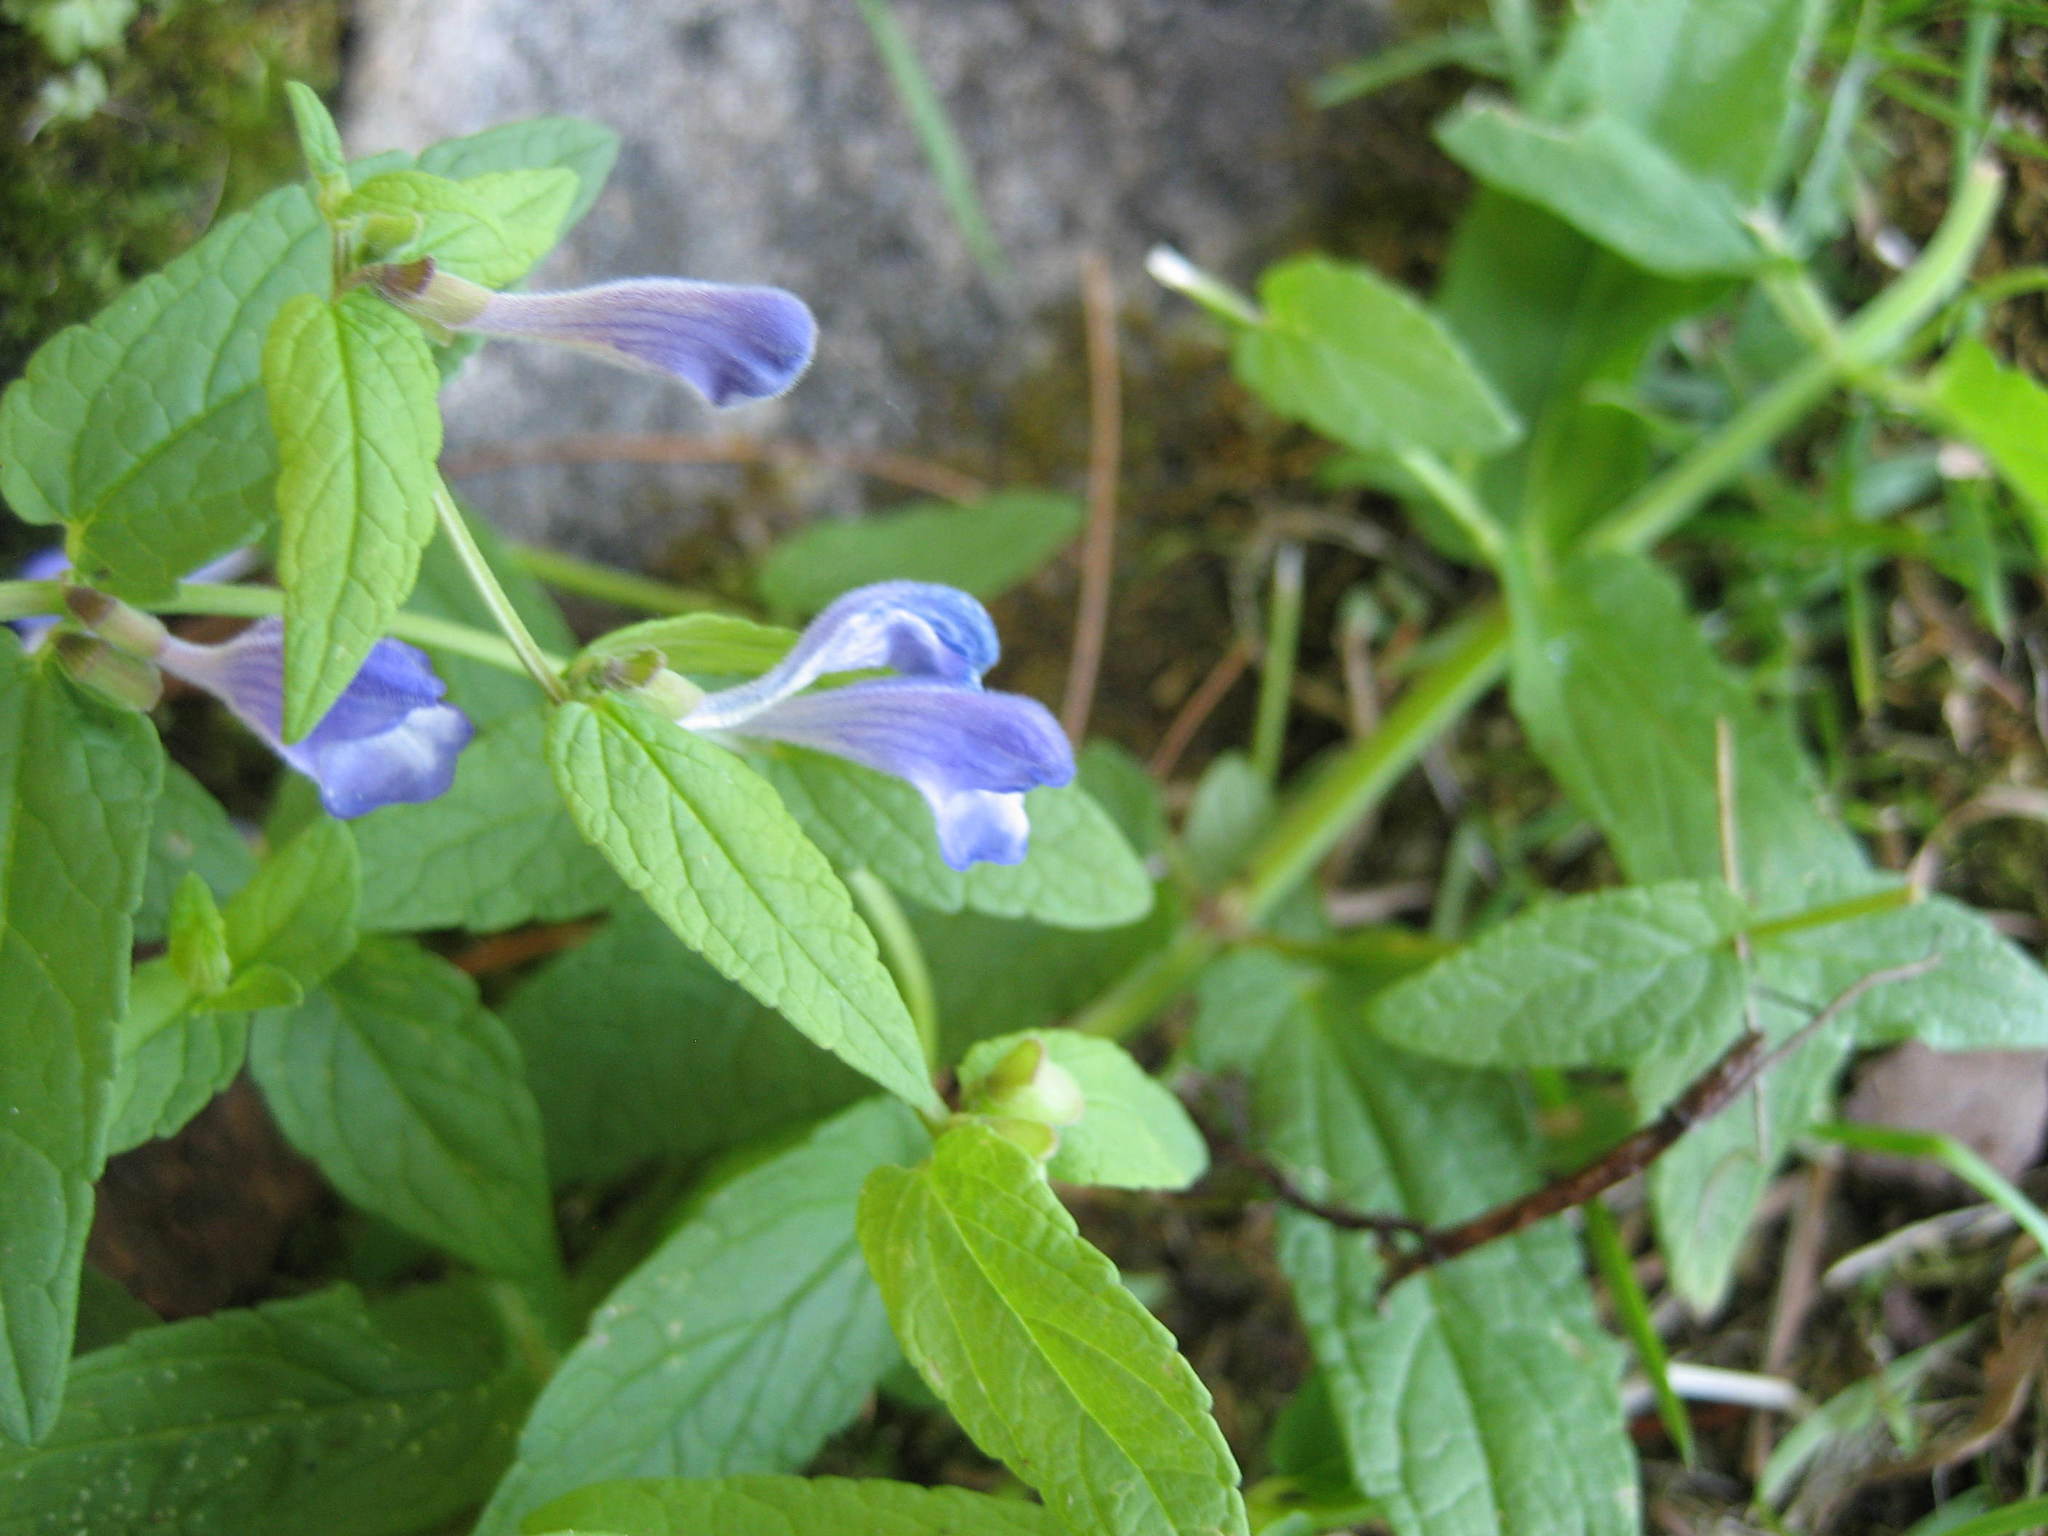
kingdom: Plantae
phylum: Tracheophyta
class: Magnoliopsida
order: Lamiales
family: Lamiaceae
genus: Scutellaria
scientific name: Scutellaria galericulata
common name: Skullcap
